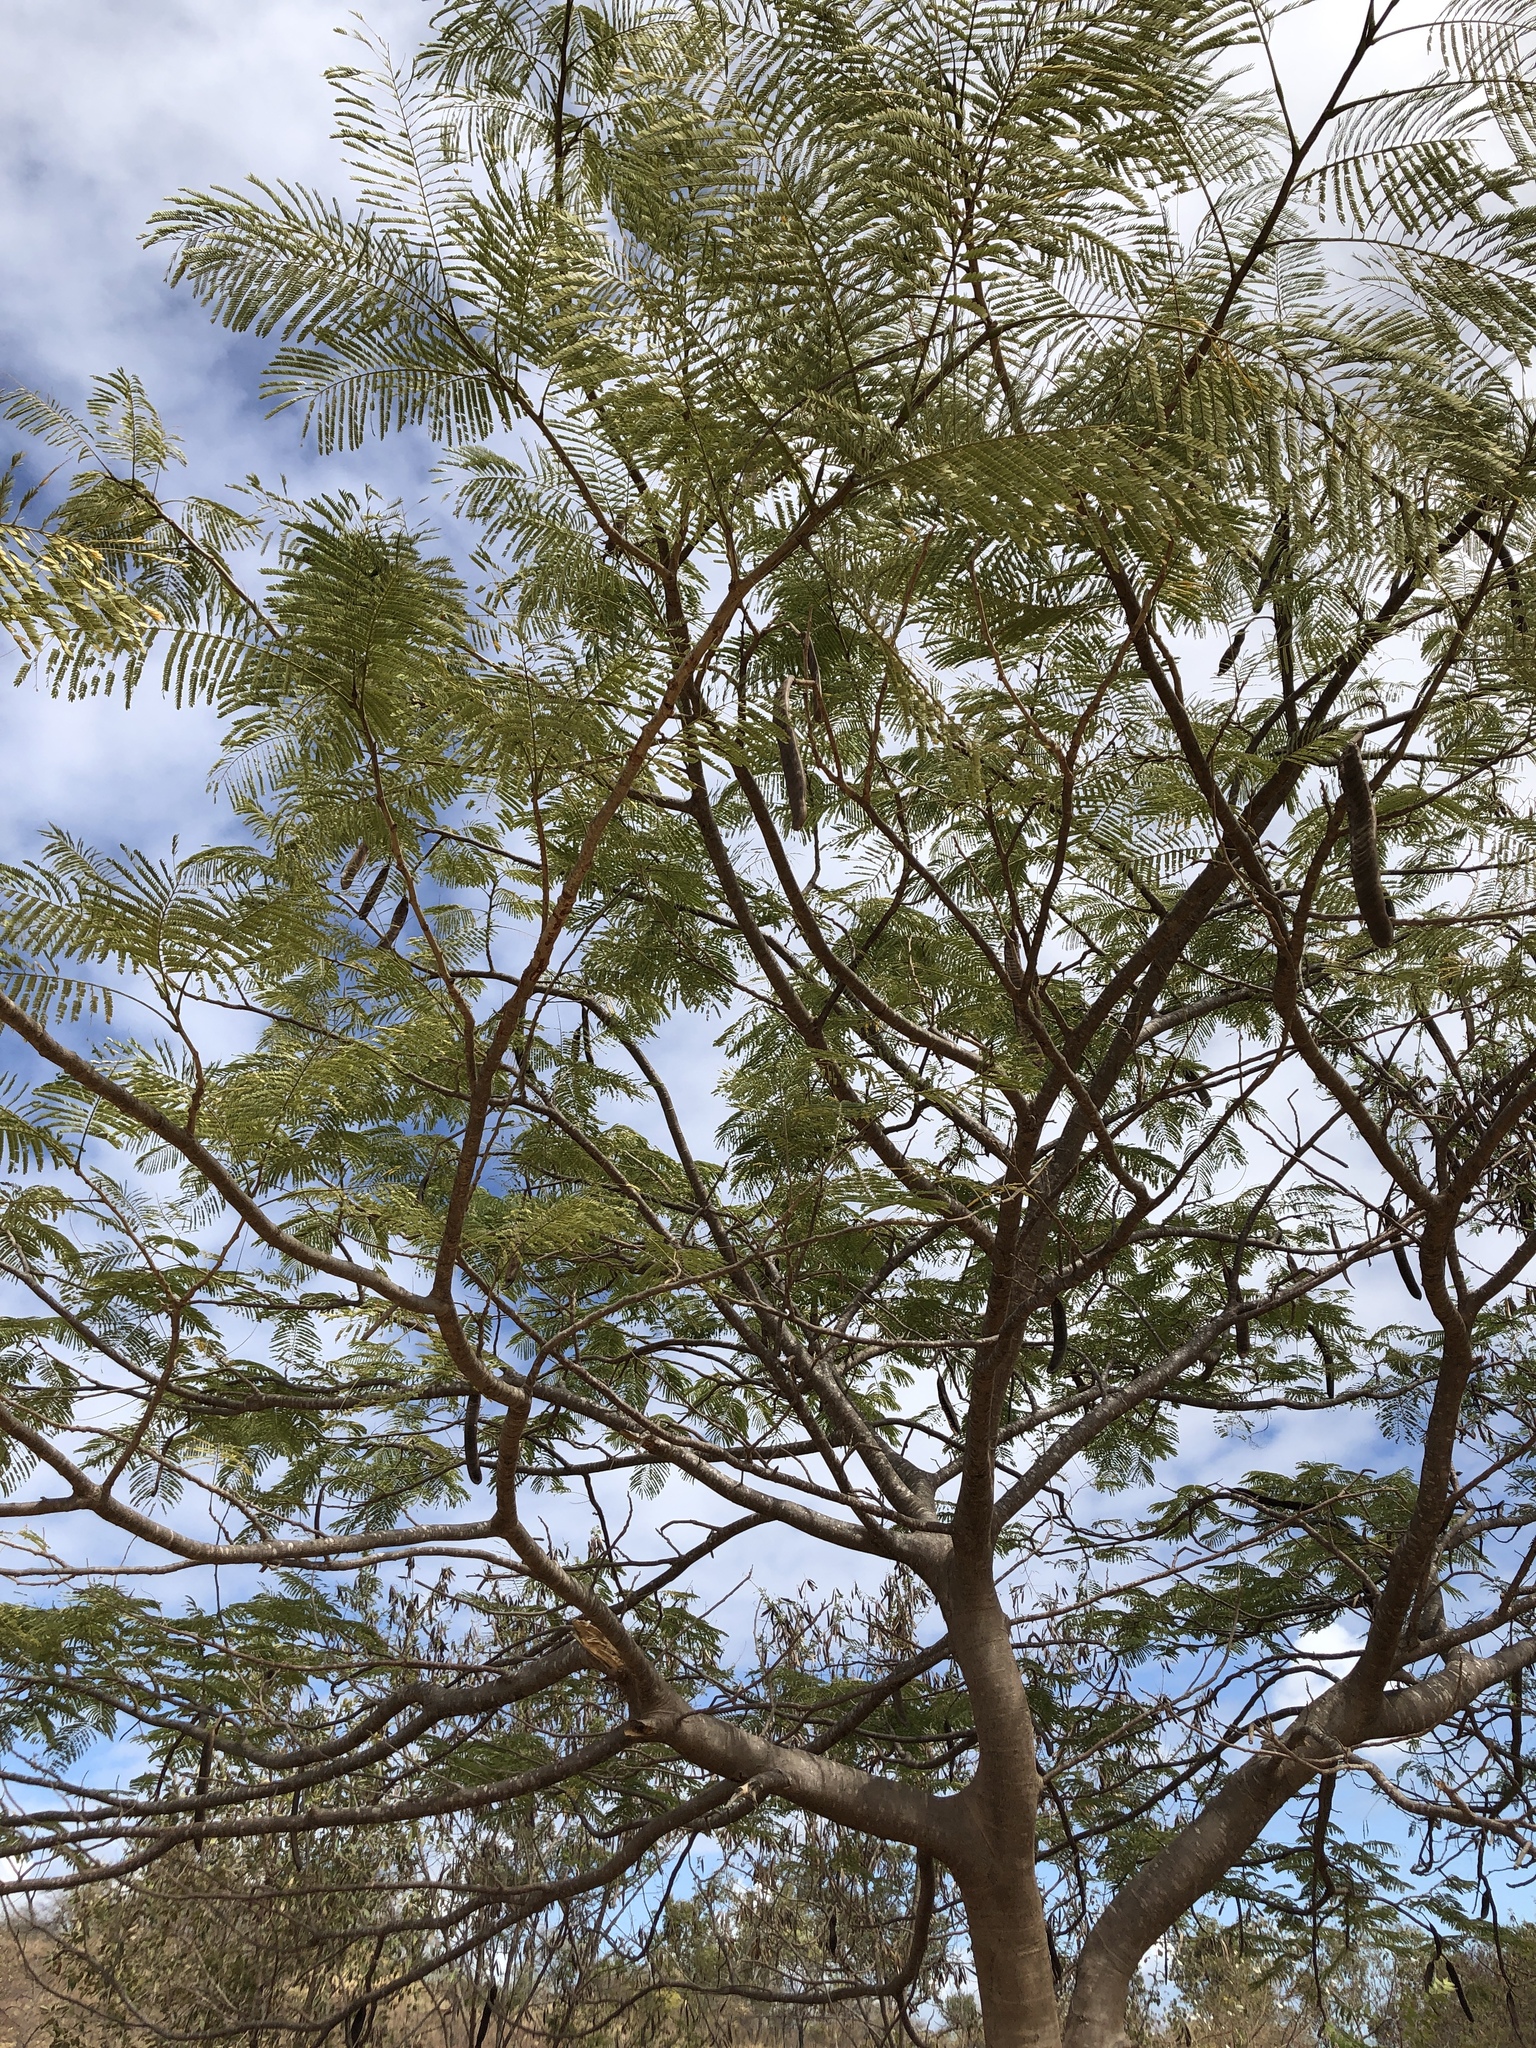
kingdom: Plantae
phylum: Tracheophyta
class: Magnoliopsida
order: Fabales
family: Fabaceae
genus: Delonix
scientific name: Delonix regia
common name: Royal poinciana
